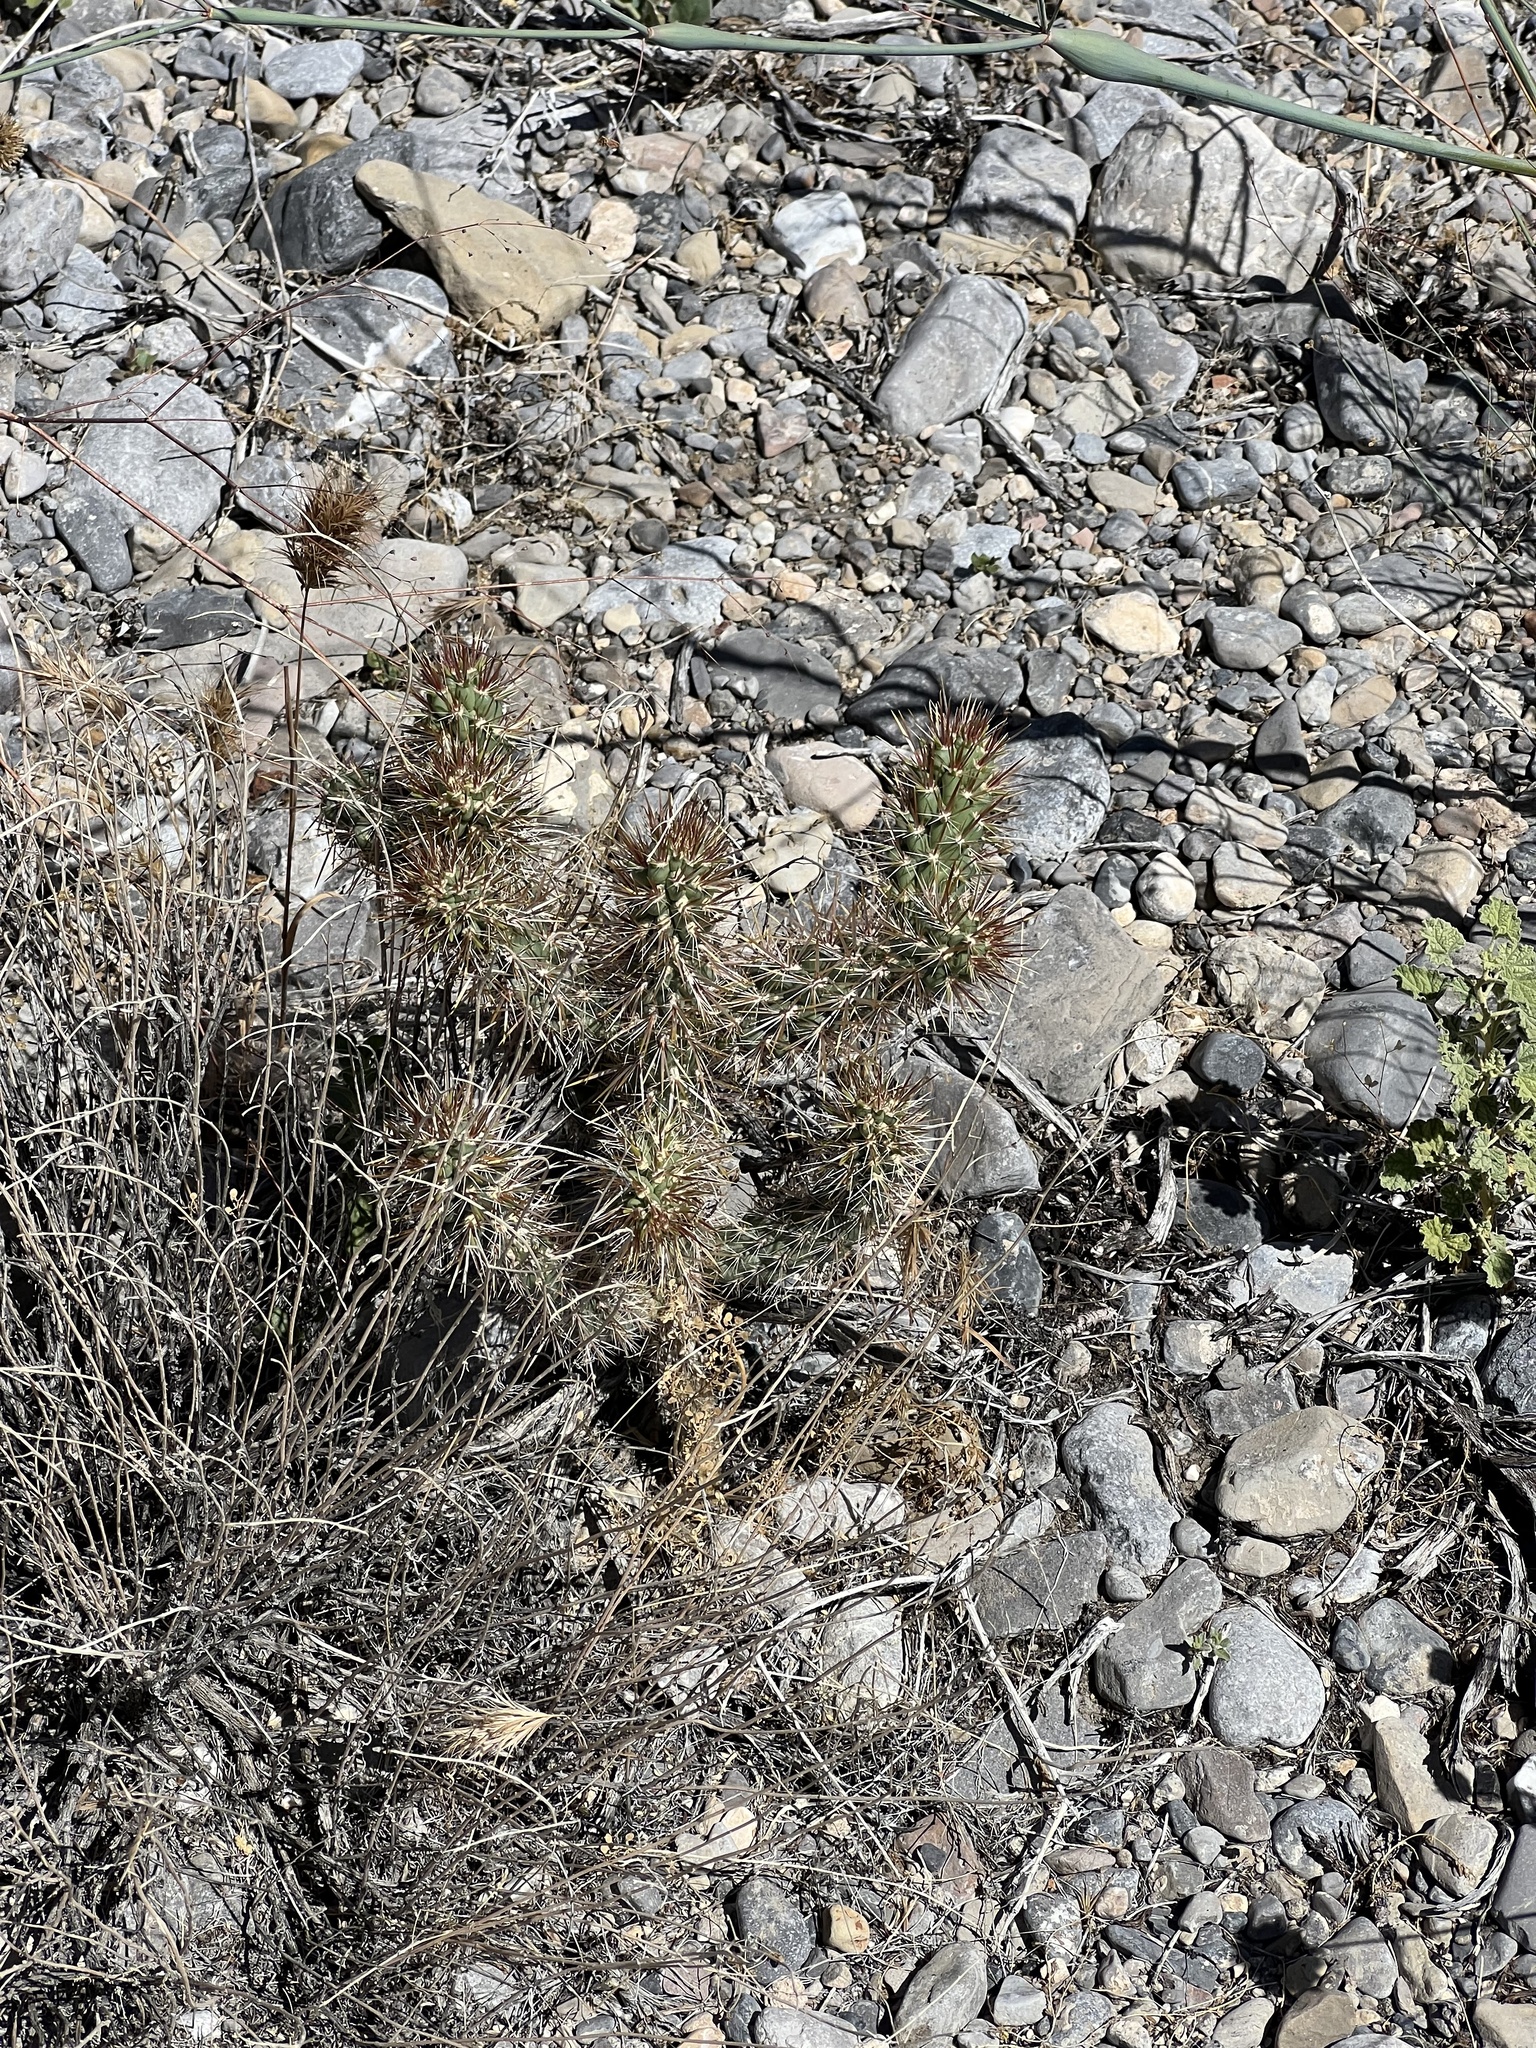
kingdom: Plantae
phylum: Tracheophyta
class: Magnoliopsida
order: Caryophyllales
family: Cactaceae
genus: Cylindropuntia
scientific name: Cylindropuntia echinocarpa
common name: Ground cholla
